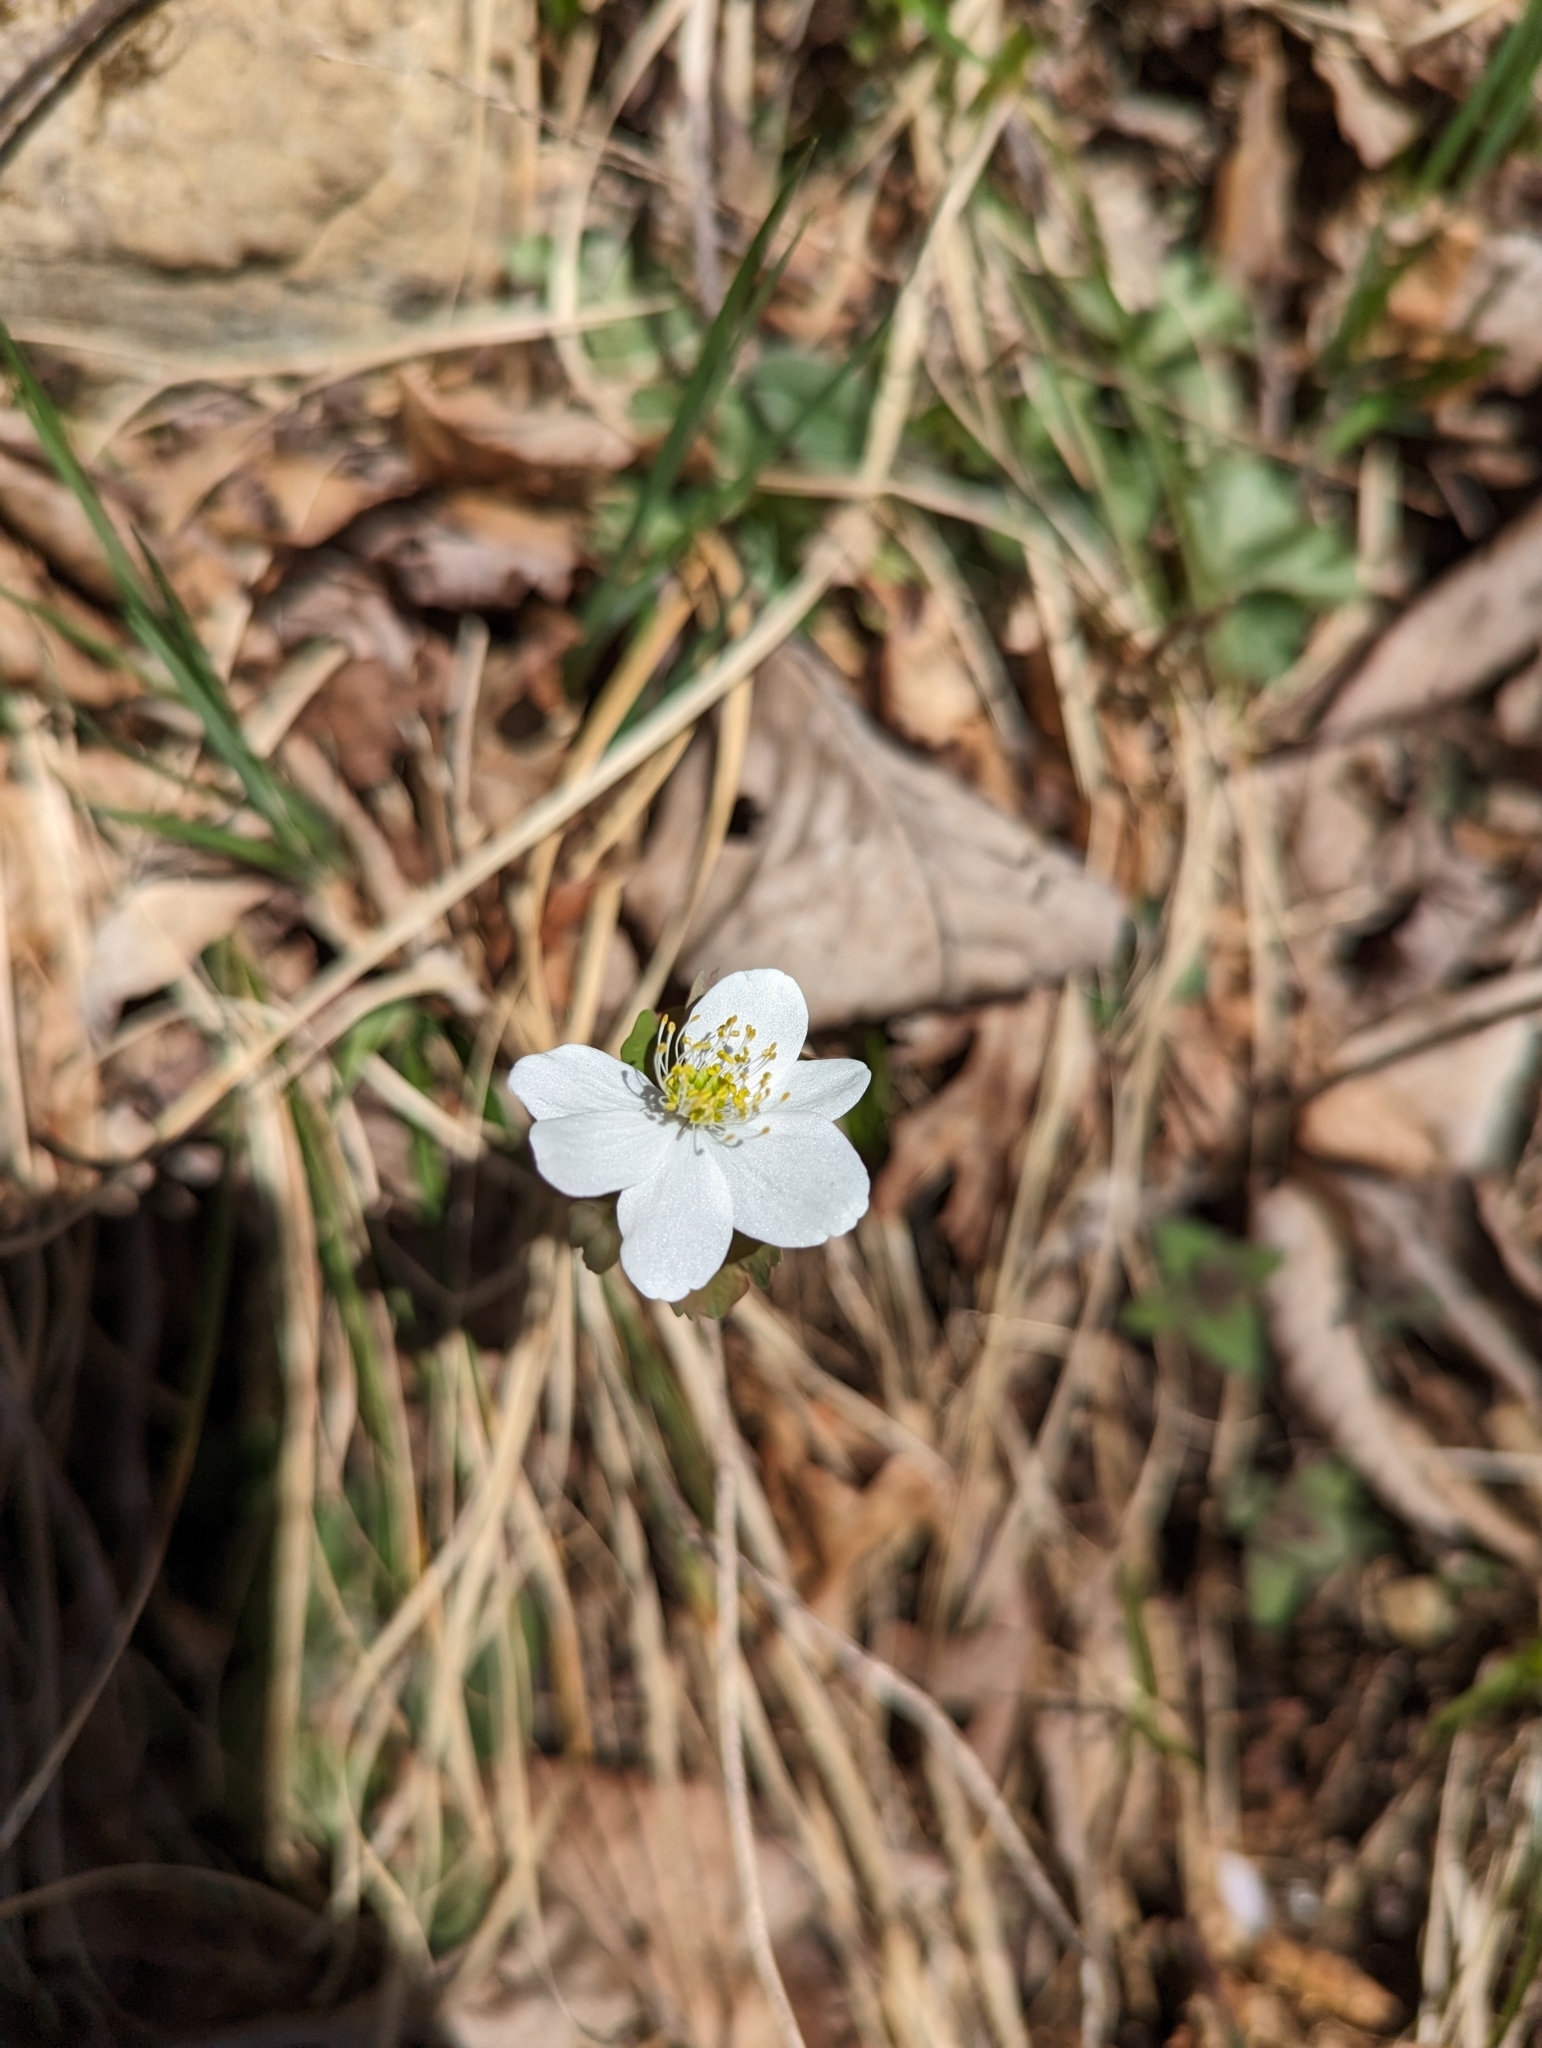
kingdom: Plantae
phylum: Tracheophyta
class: Magnoliopsida
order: Ranunculales
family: Ranunculaceae
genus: Thalictrum
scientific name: Thalictrum thalictroides
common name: Rue-anemone
